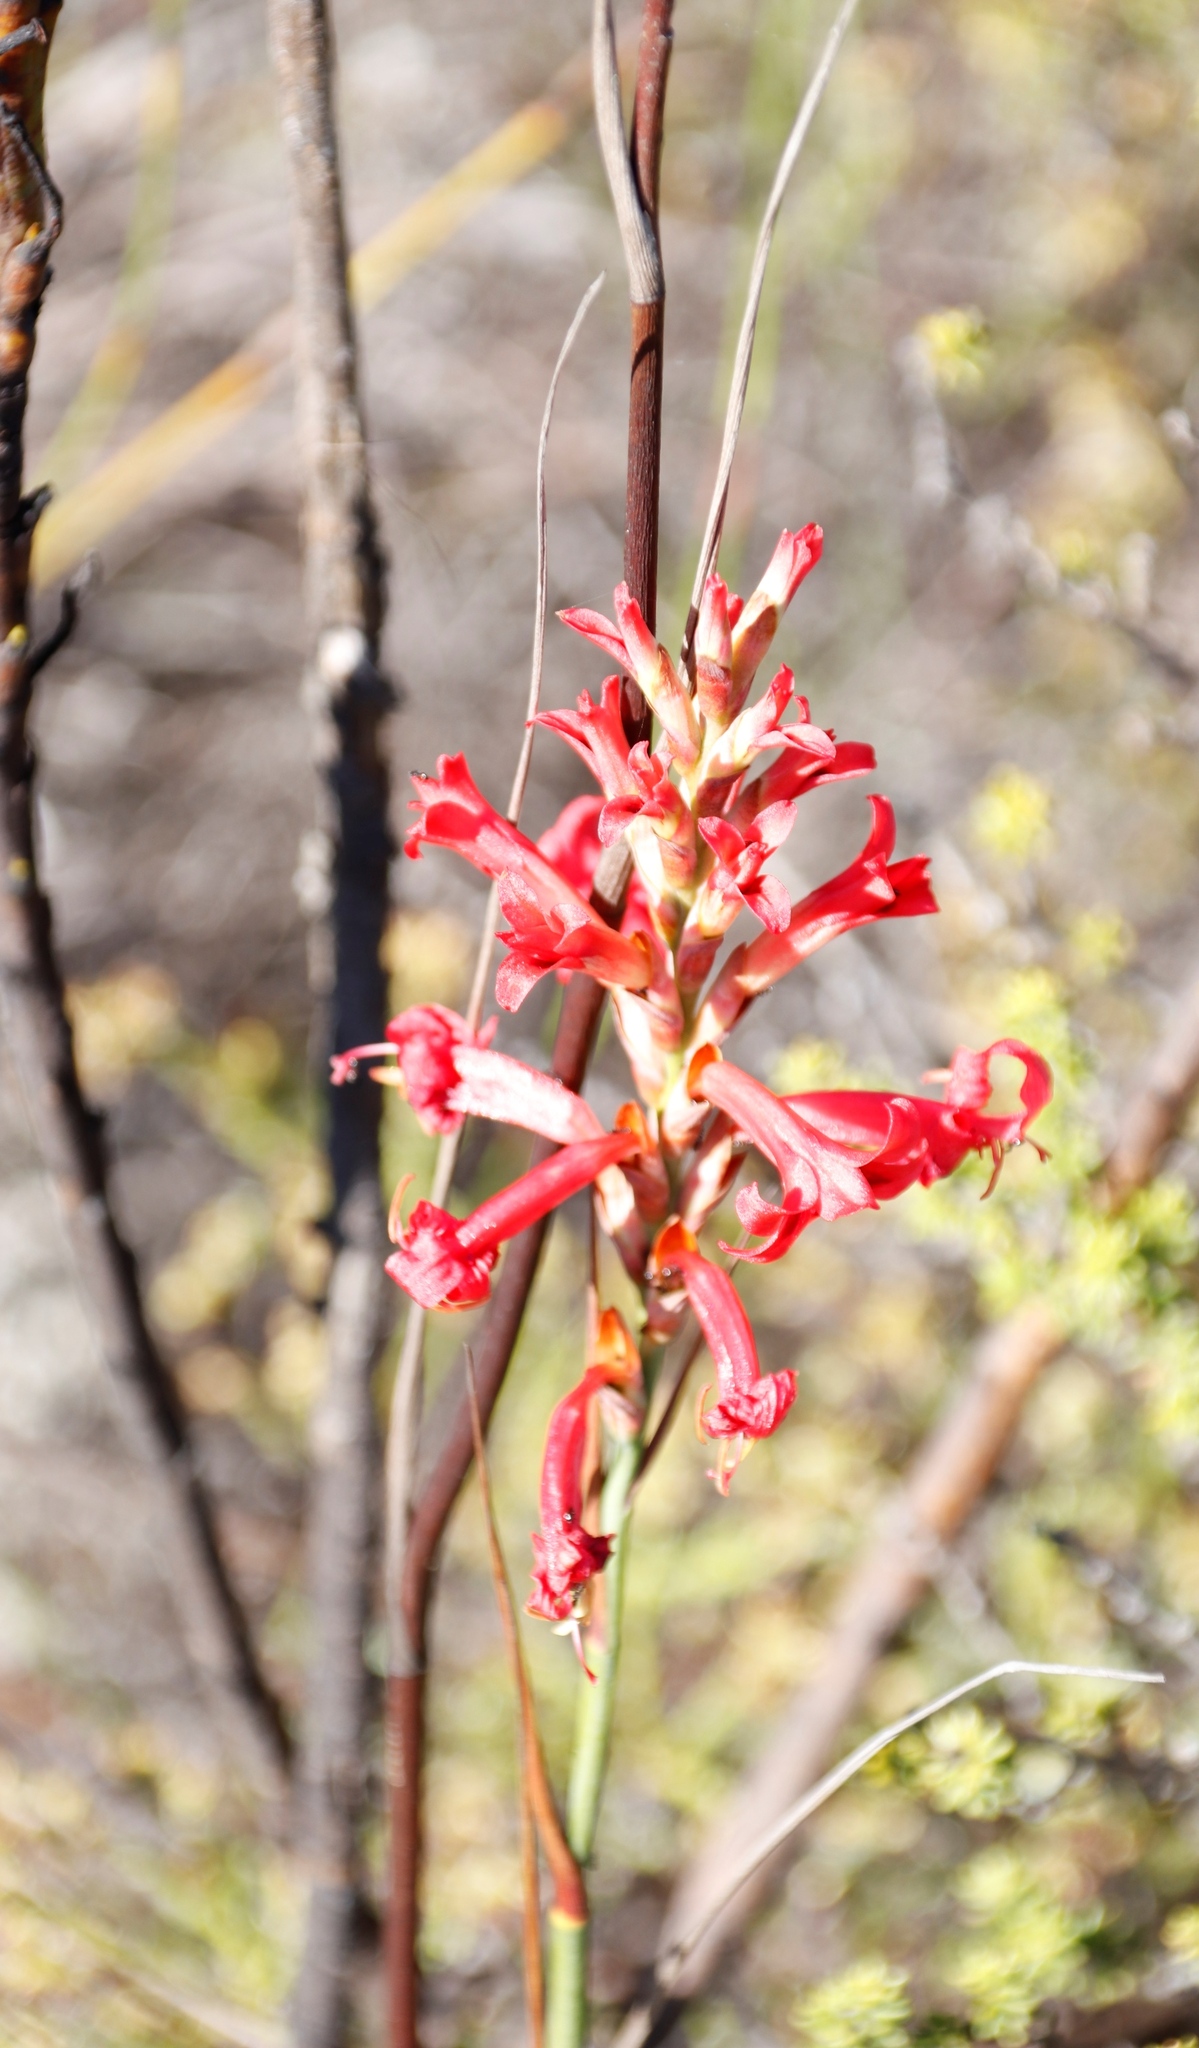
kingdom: Plantae
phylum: Tracheophyta
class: Liliopsida
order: Asparagales
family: Iridaceae
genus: Tritoniopsis
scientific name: Tritoniopsis triticea
